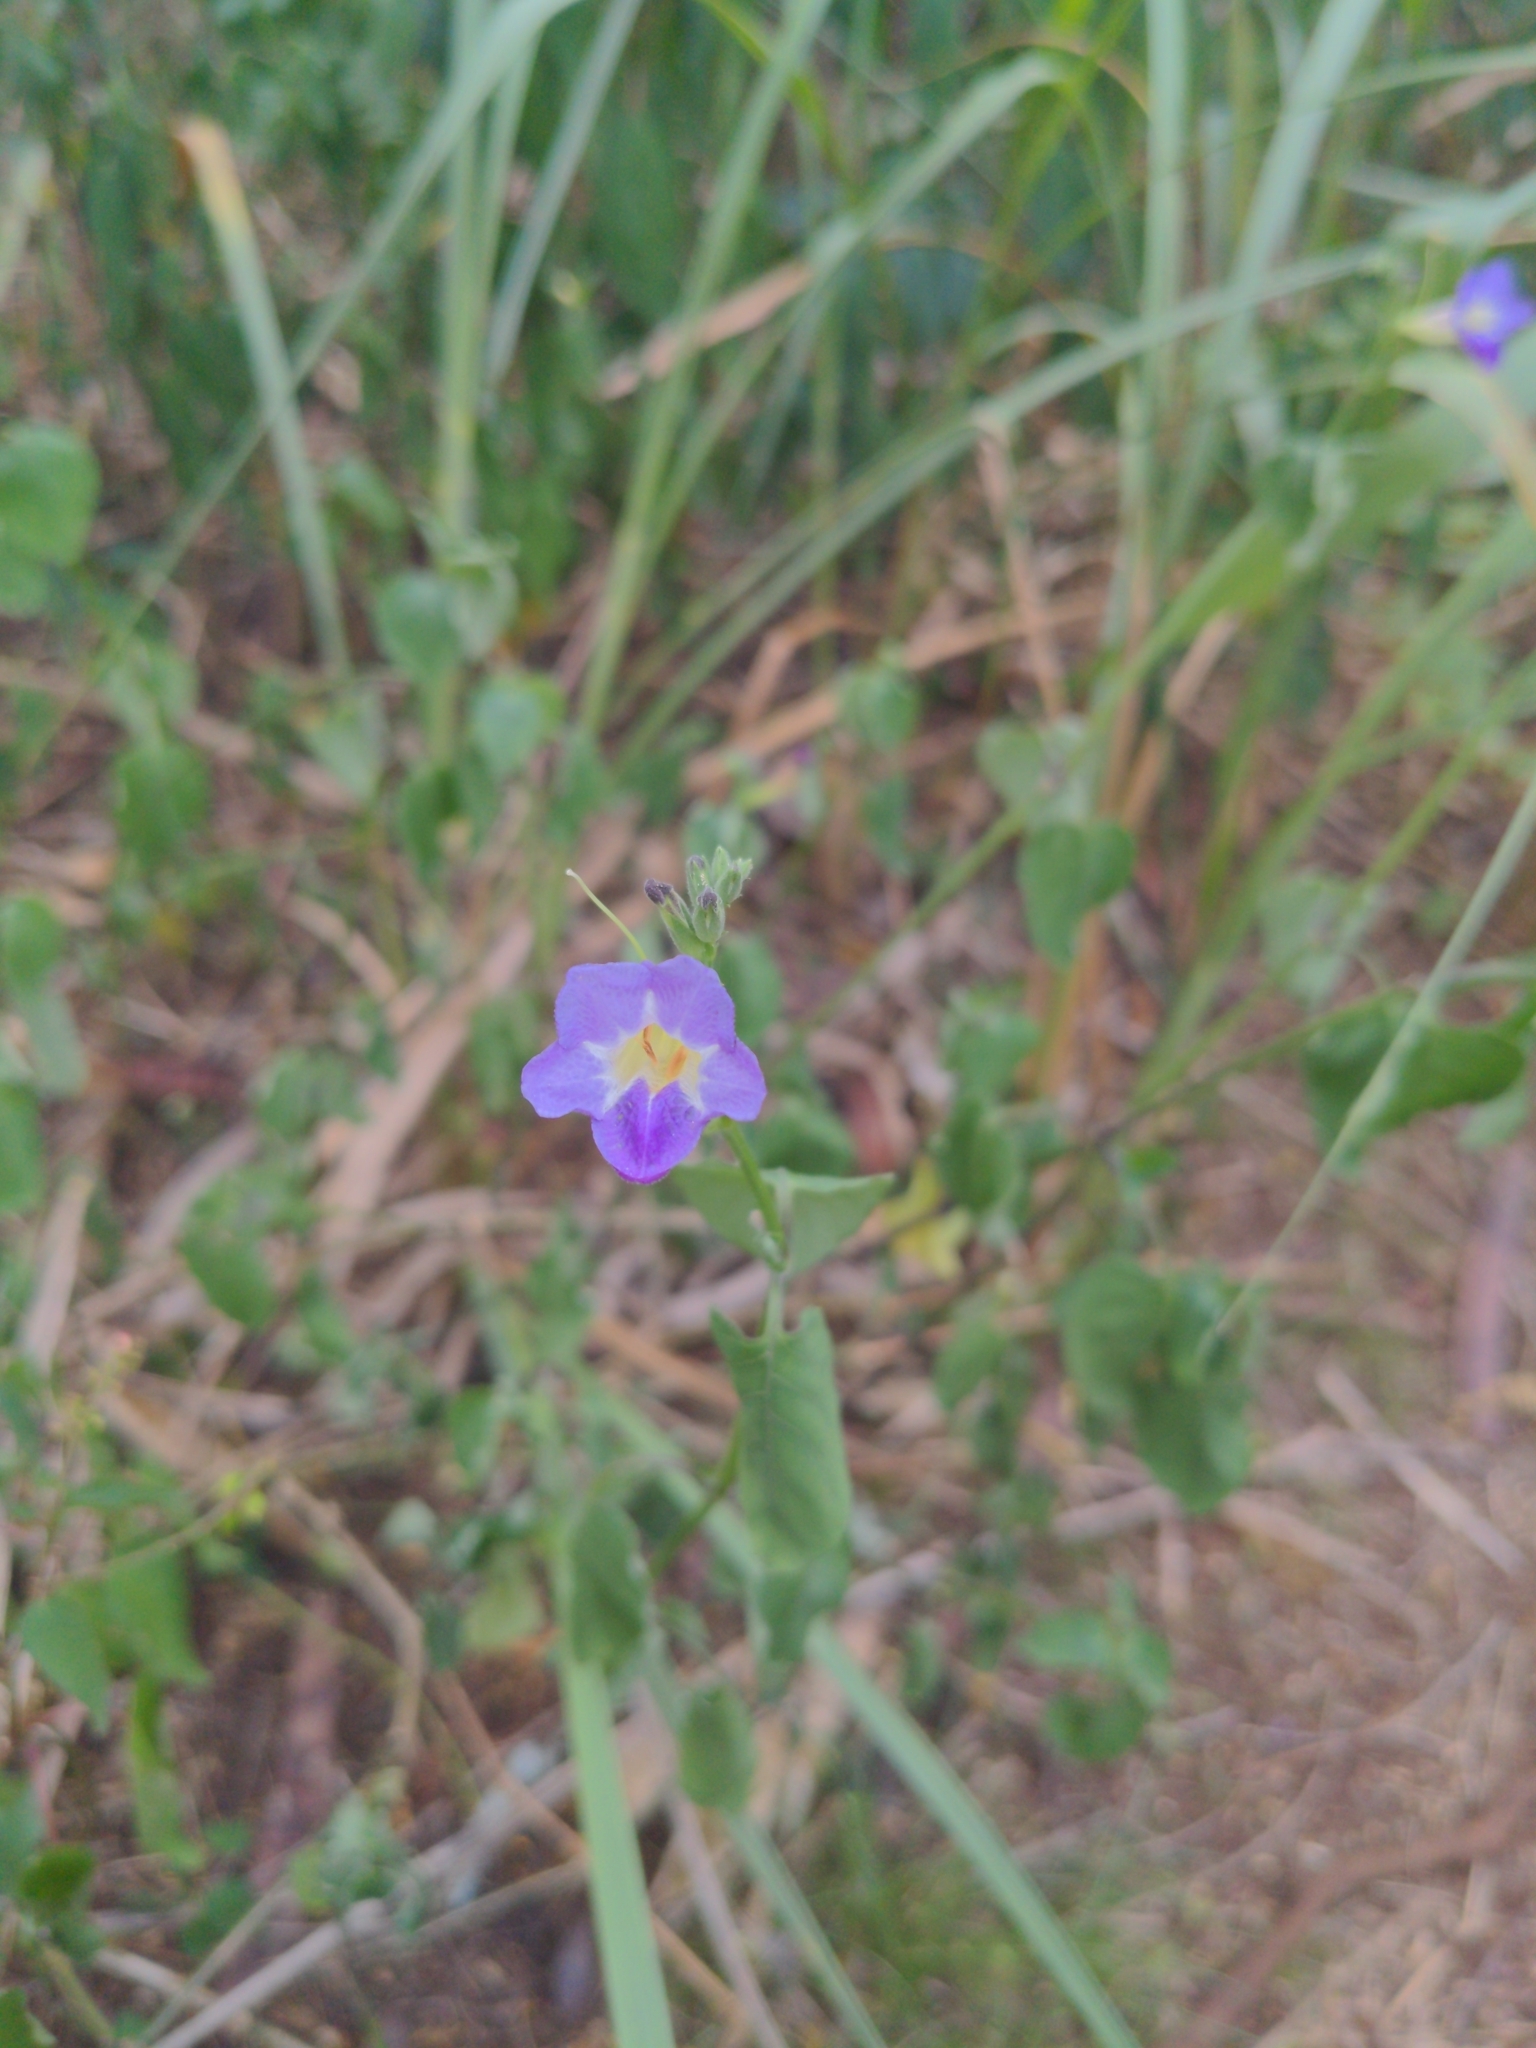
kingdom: Plantae
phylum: Tracheophyta
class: Magnoliopsida
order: Lamiales
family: Acanthaceae
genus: Asystasia
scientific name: Asystasia gangetica
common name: Chinese violet
